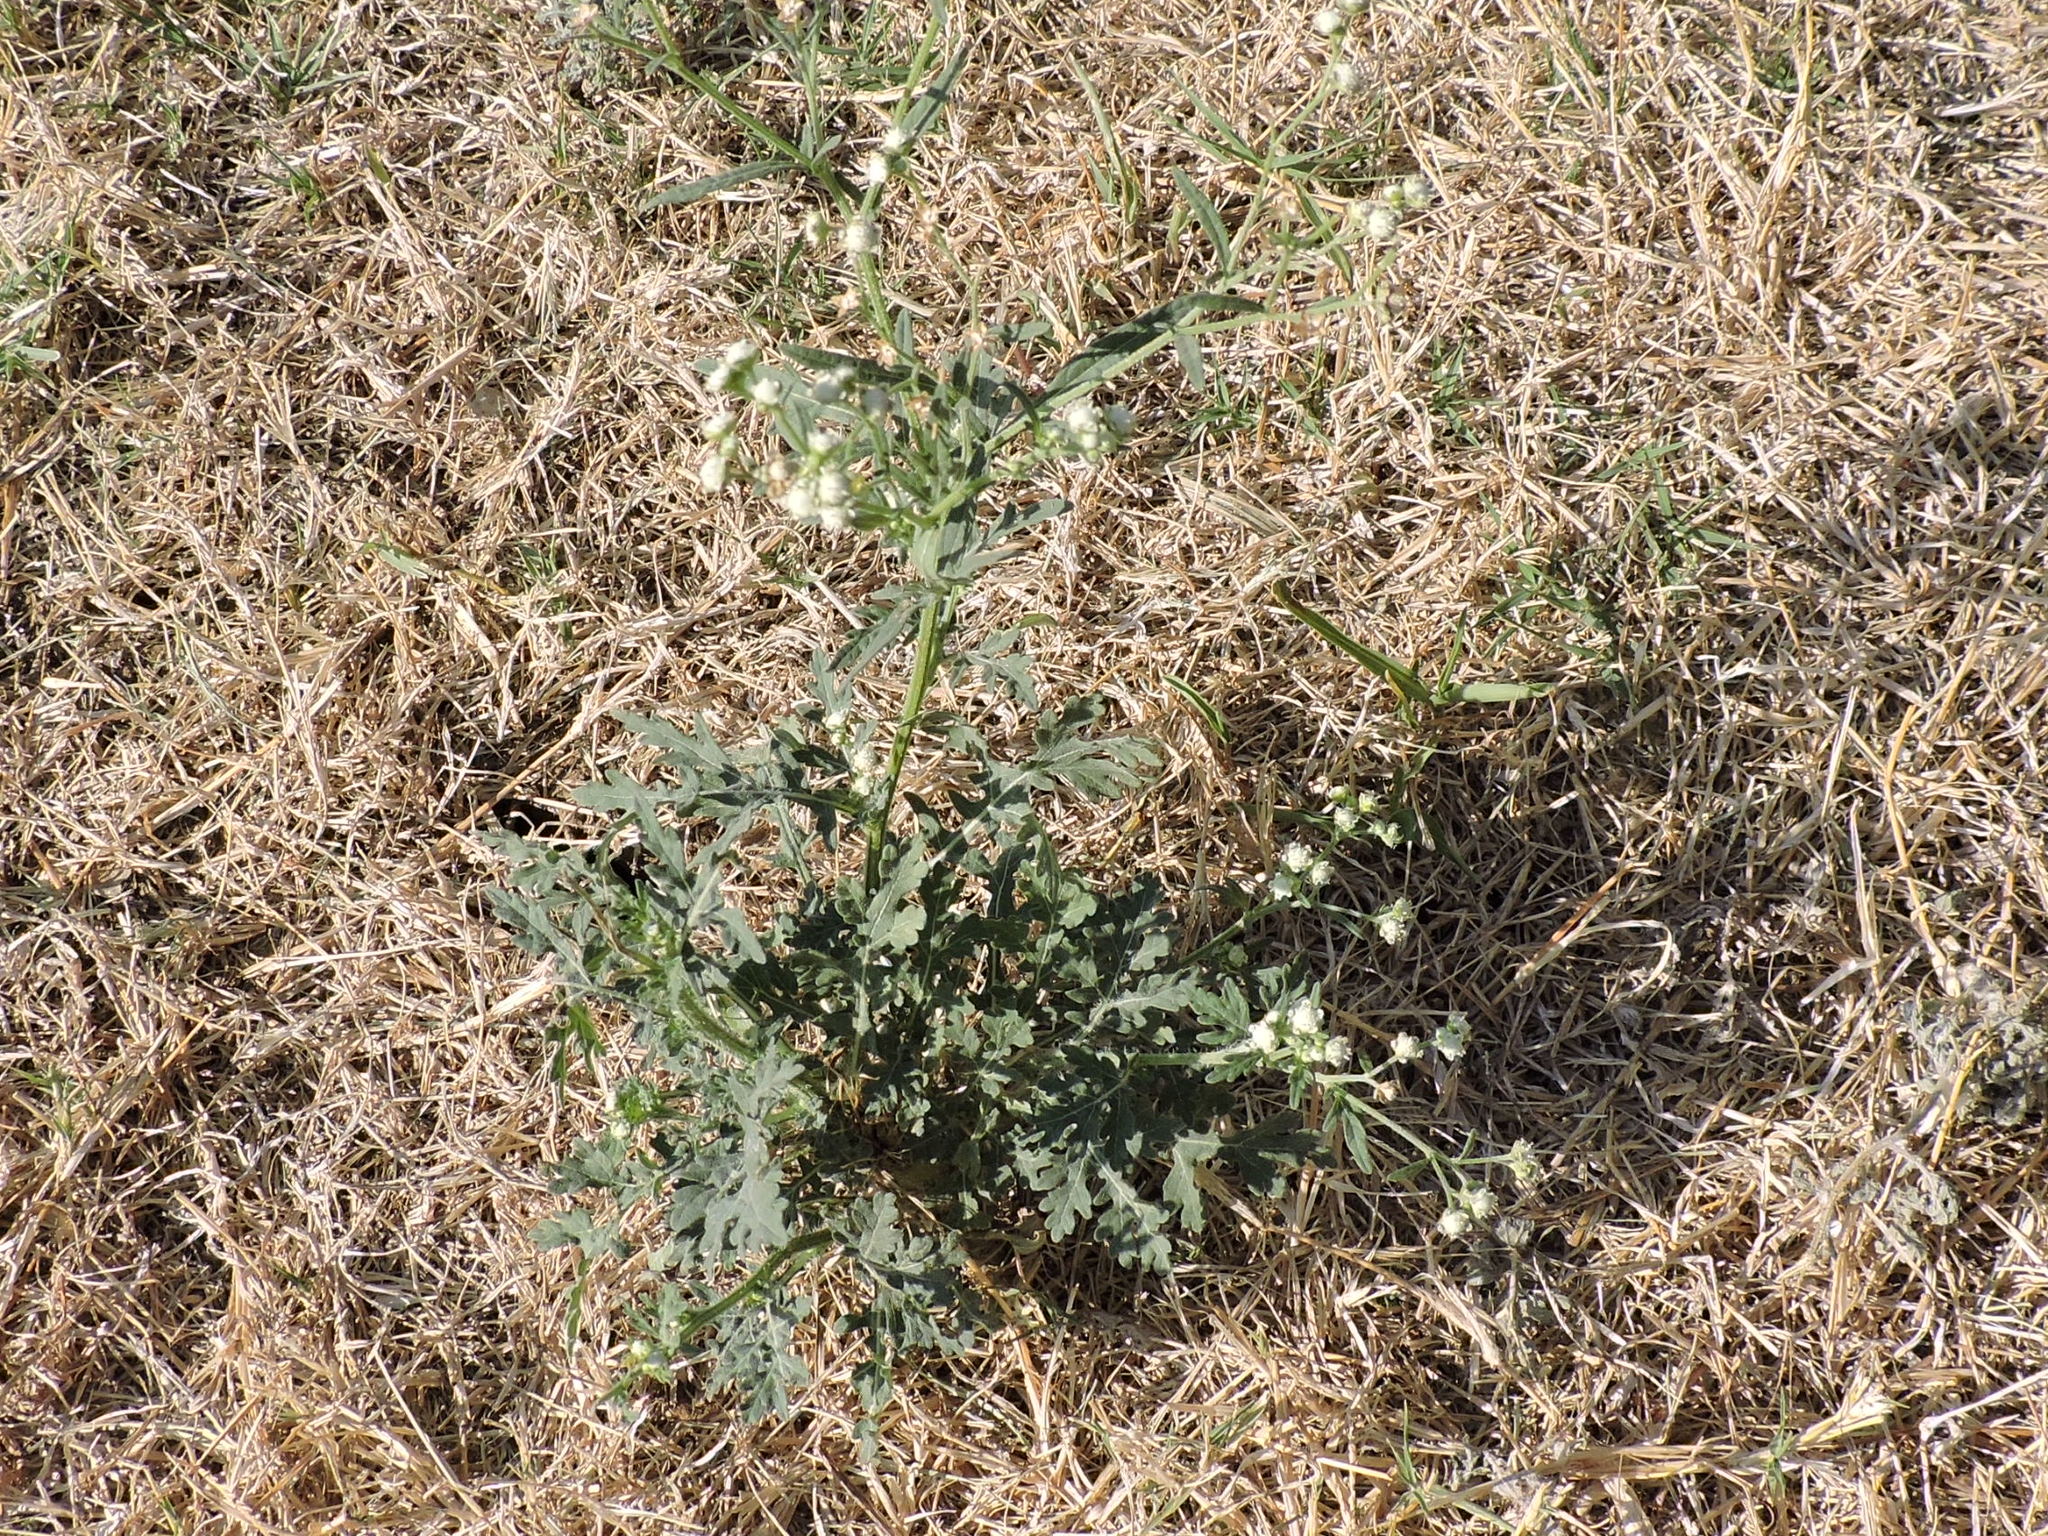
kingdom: Plantae
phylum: Tracheophyta
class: Magnoliopsida
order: Asterales
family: Asteraceae
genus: Parthenium
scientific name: Parthenium hysterophorus
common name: Santa maria feverfew
